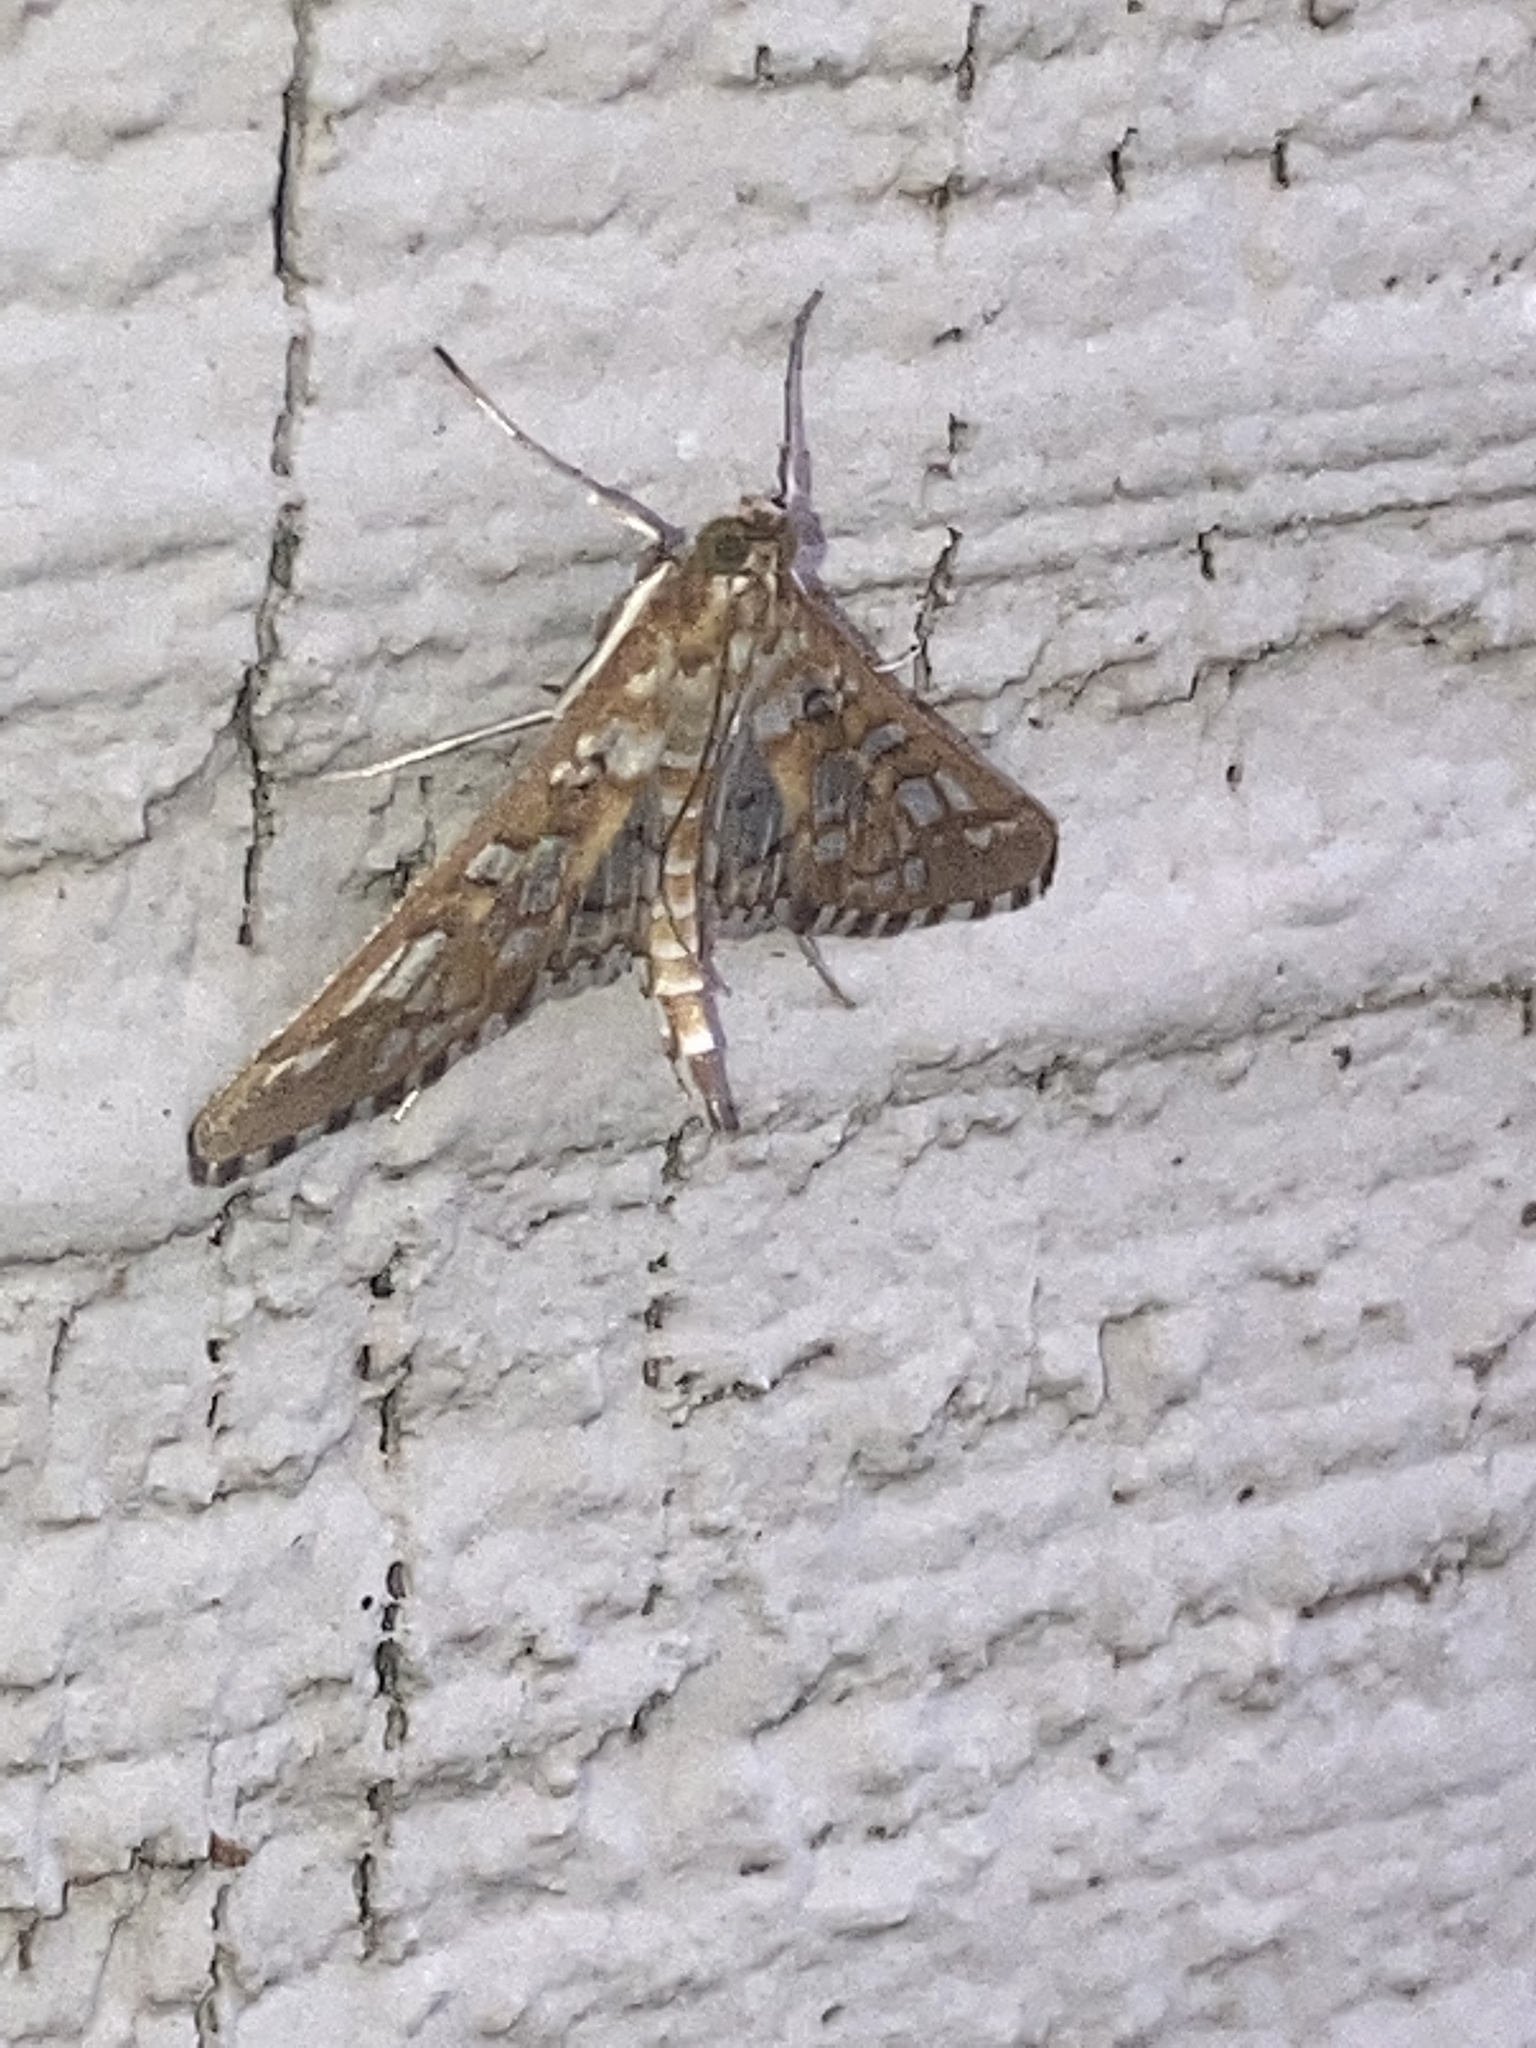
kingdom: Animalia
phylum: Arthropoda
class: Insecta
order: Lepidoptera
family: Crambidae
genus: Epipagis
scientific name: Epipagis fenestralis
